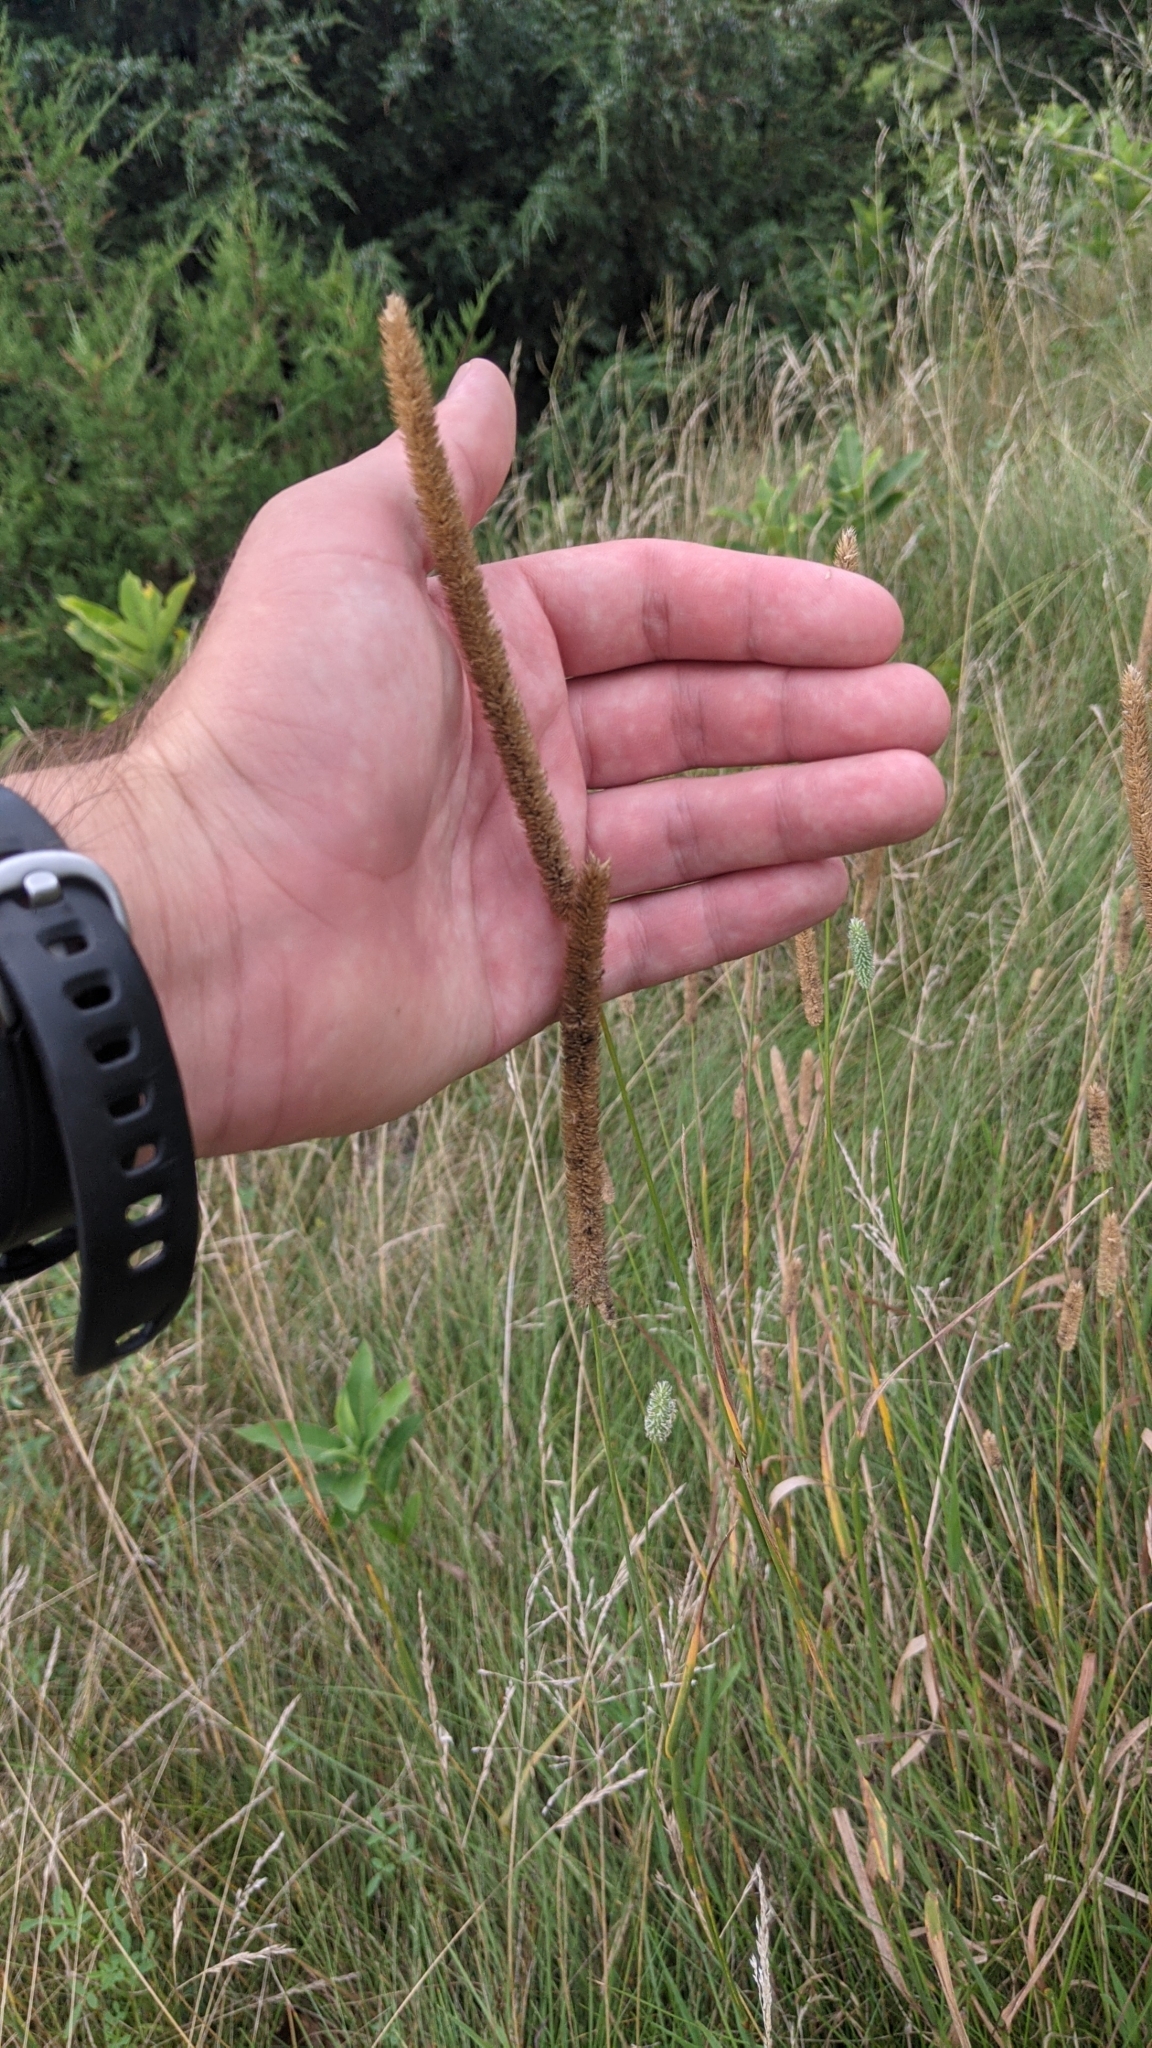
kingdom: Plantae
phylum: Tracheophyta
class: Liliopsida
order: Poales
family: Poaceae
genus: Phleum
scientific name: Phleum pratense
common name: Timothy grass
